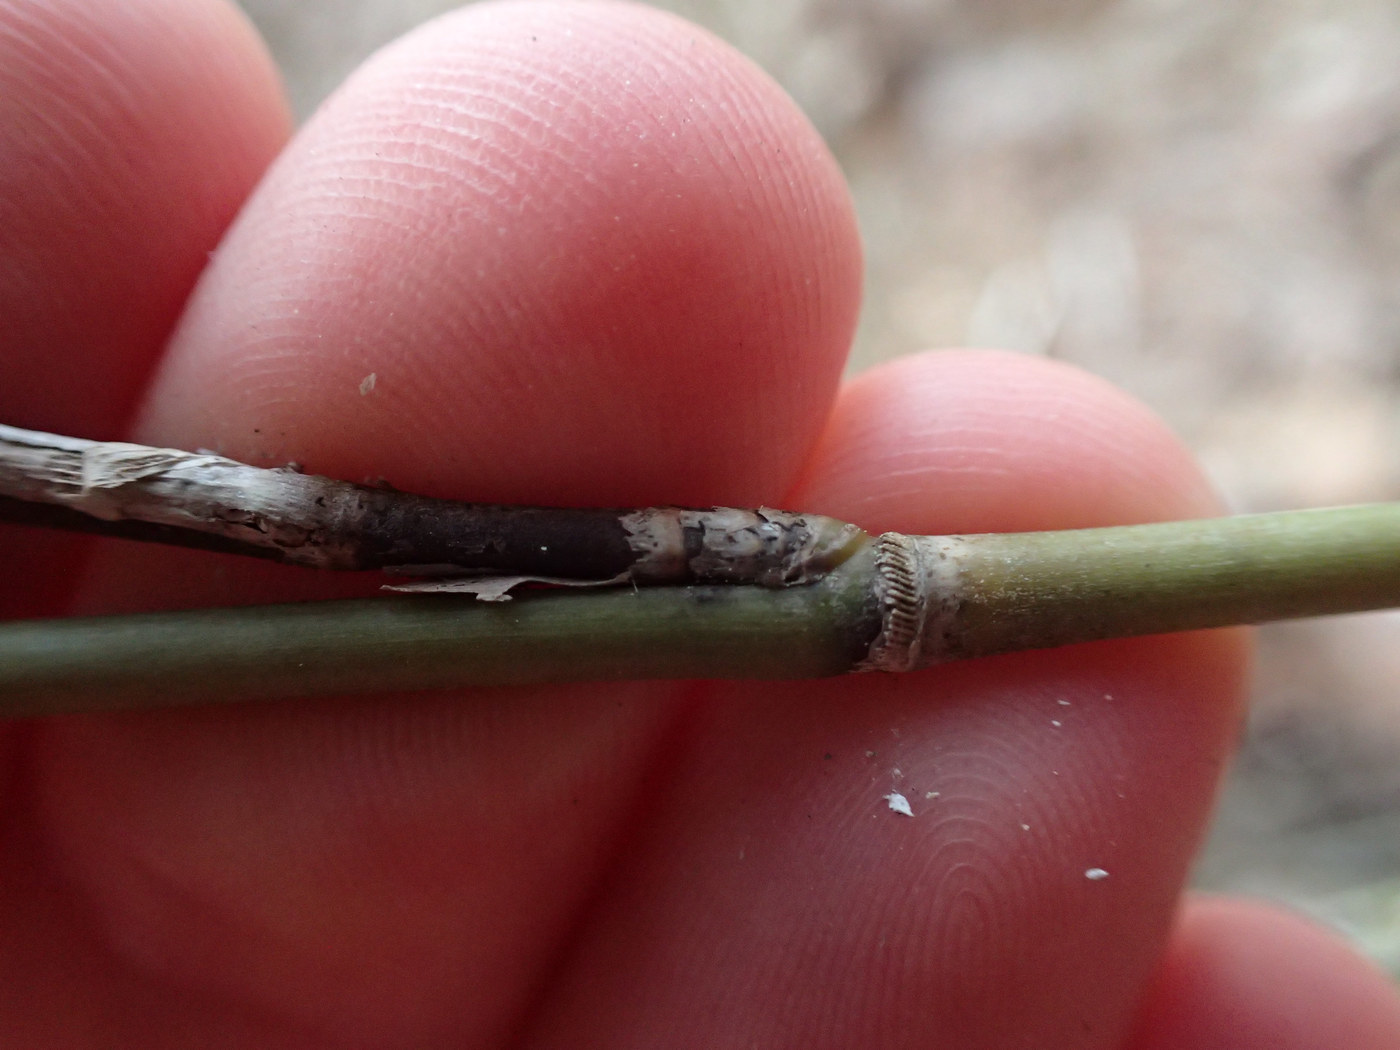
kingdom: Plantae
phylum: Tracheophyta
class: Liliopsida
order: Poales
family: Poaceae
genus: Arundinaria
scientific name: Arundinaria appalachiana
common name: Hill cane
